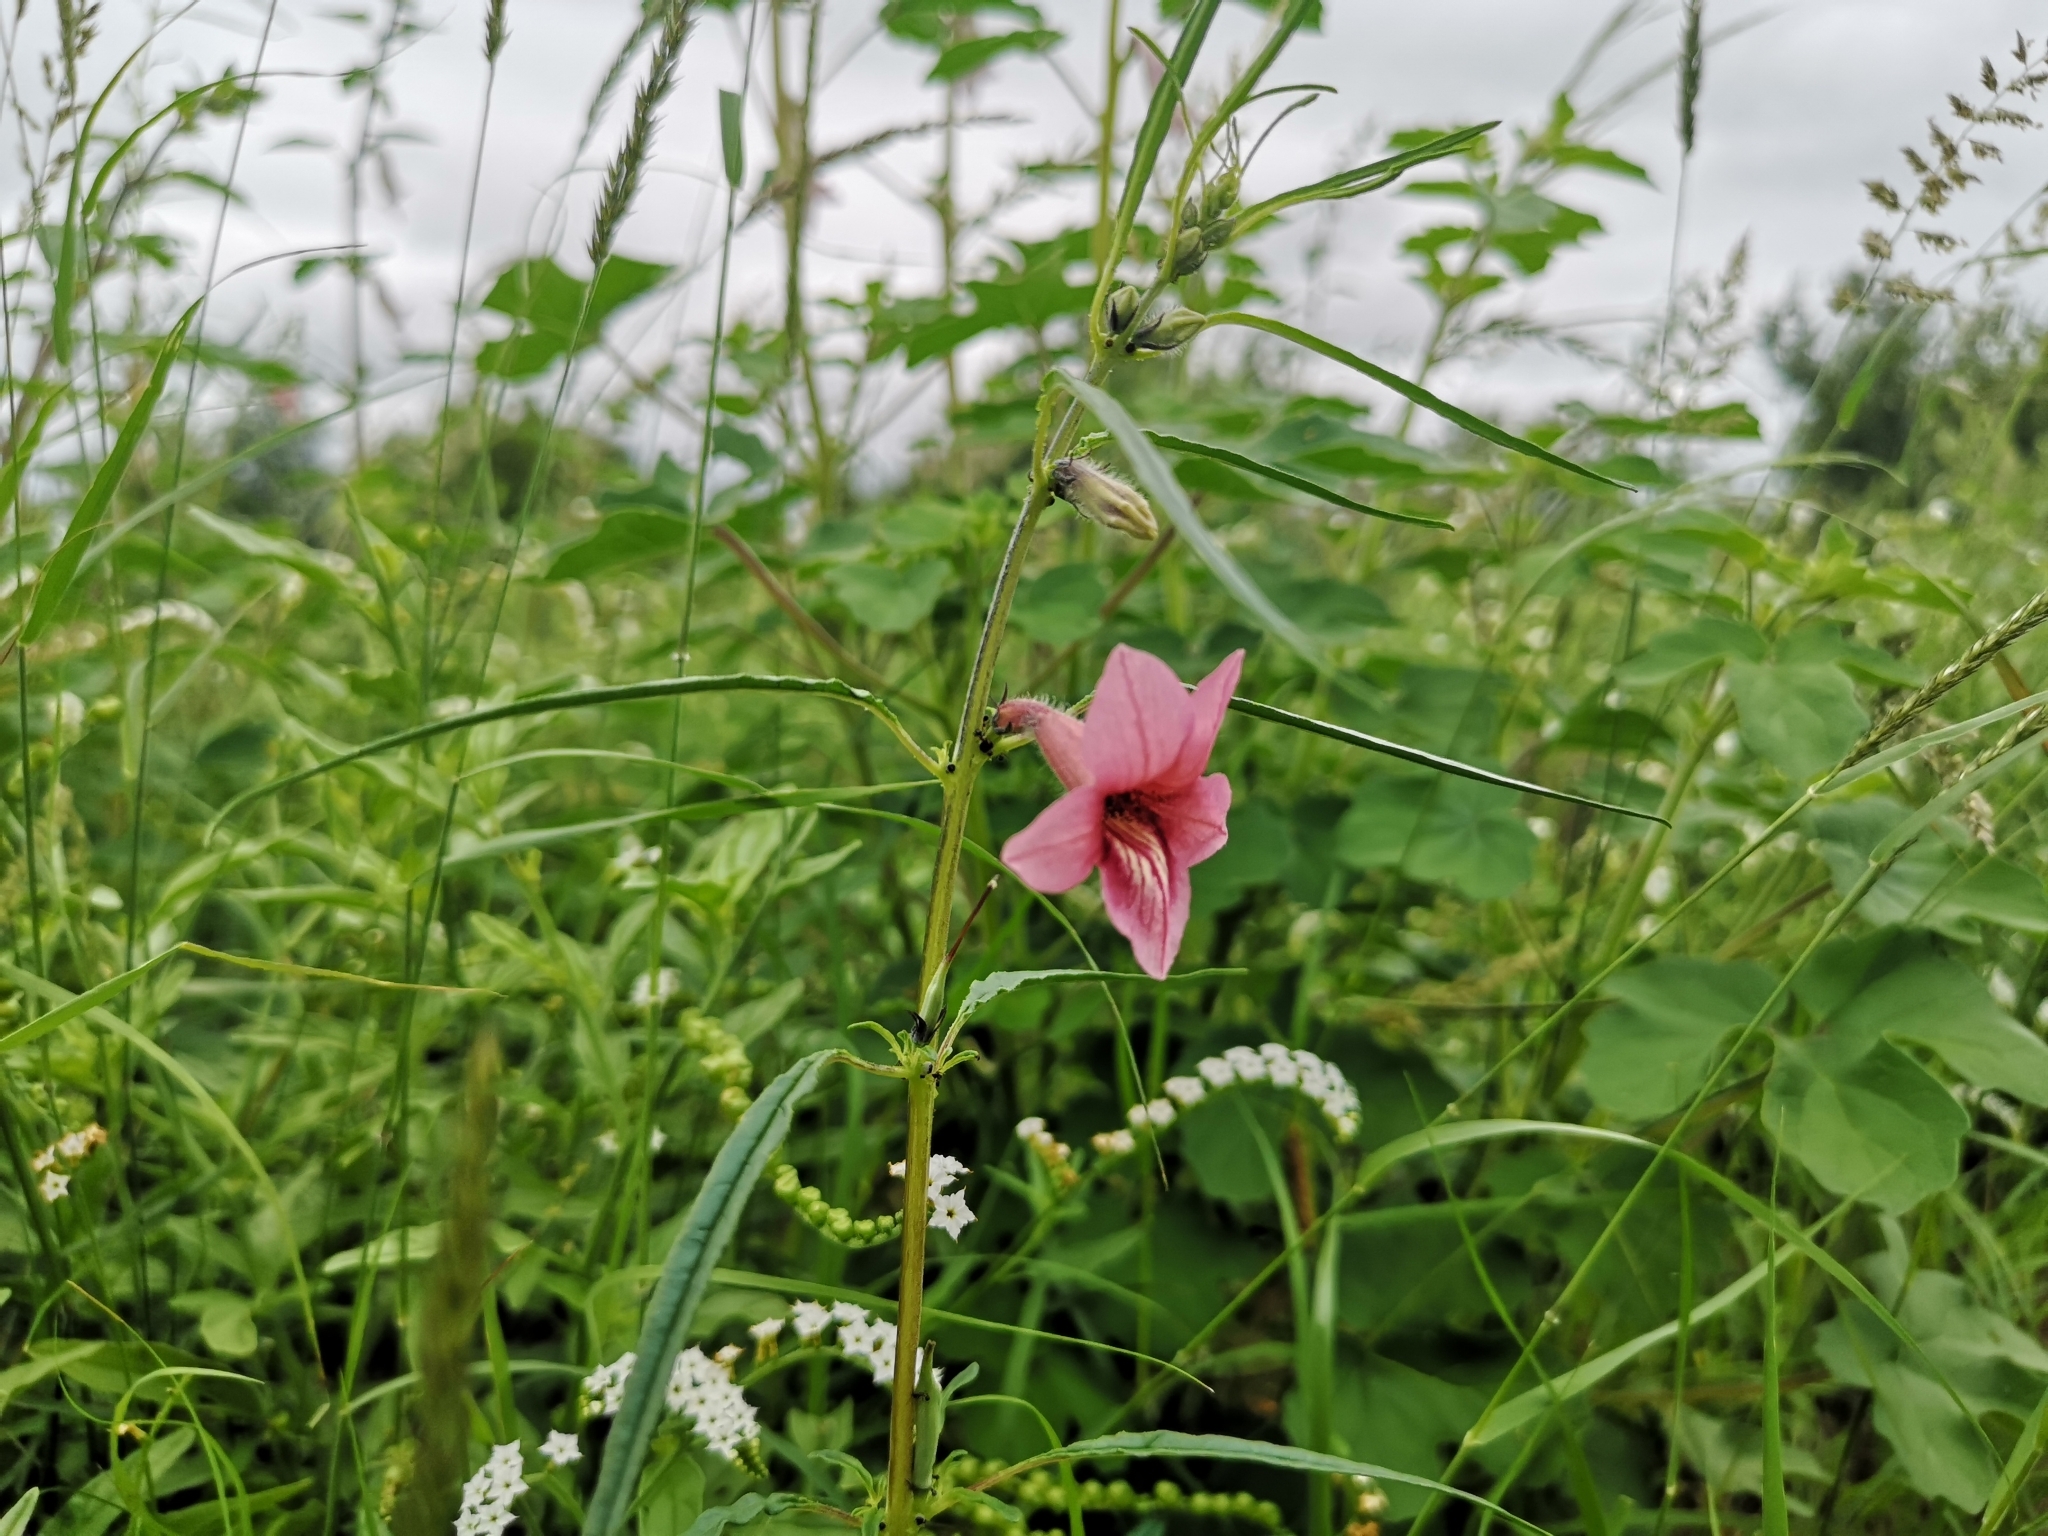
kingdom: Plantae
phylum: Tracheophyta
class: Magnoliopsida
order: Lamiales
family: Pedaliaceae
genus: Sesamum
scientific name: Sesamum alatum
